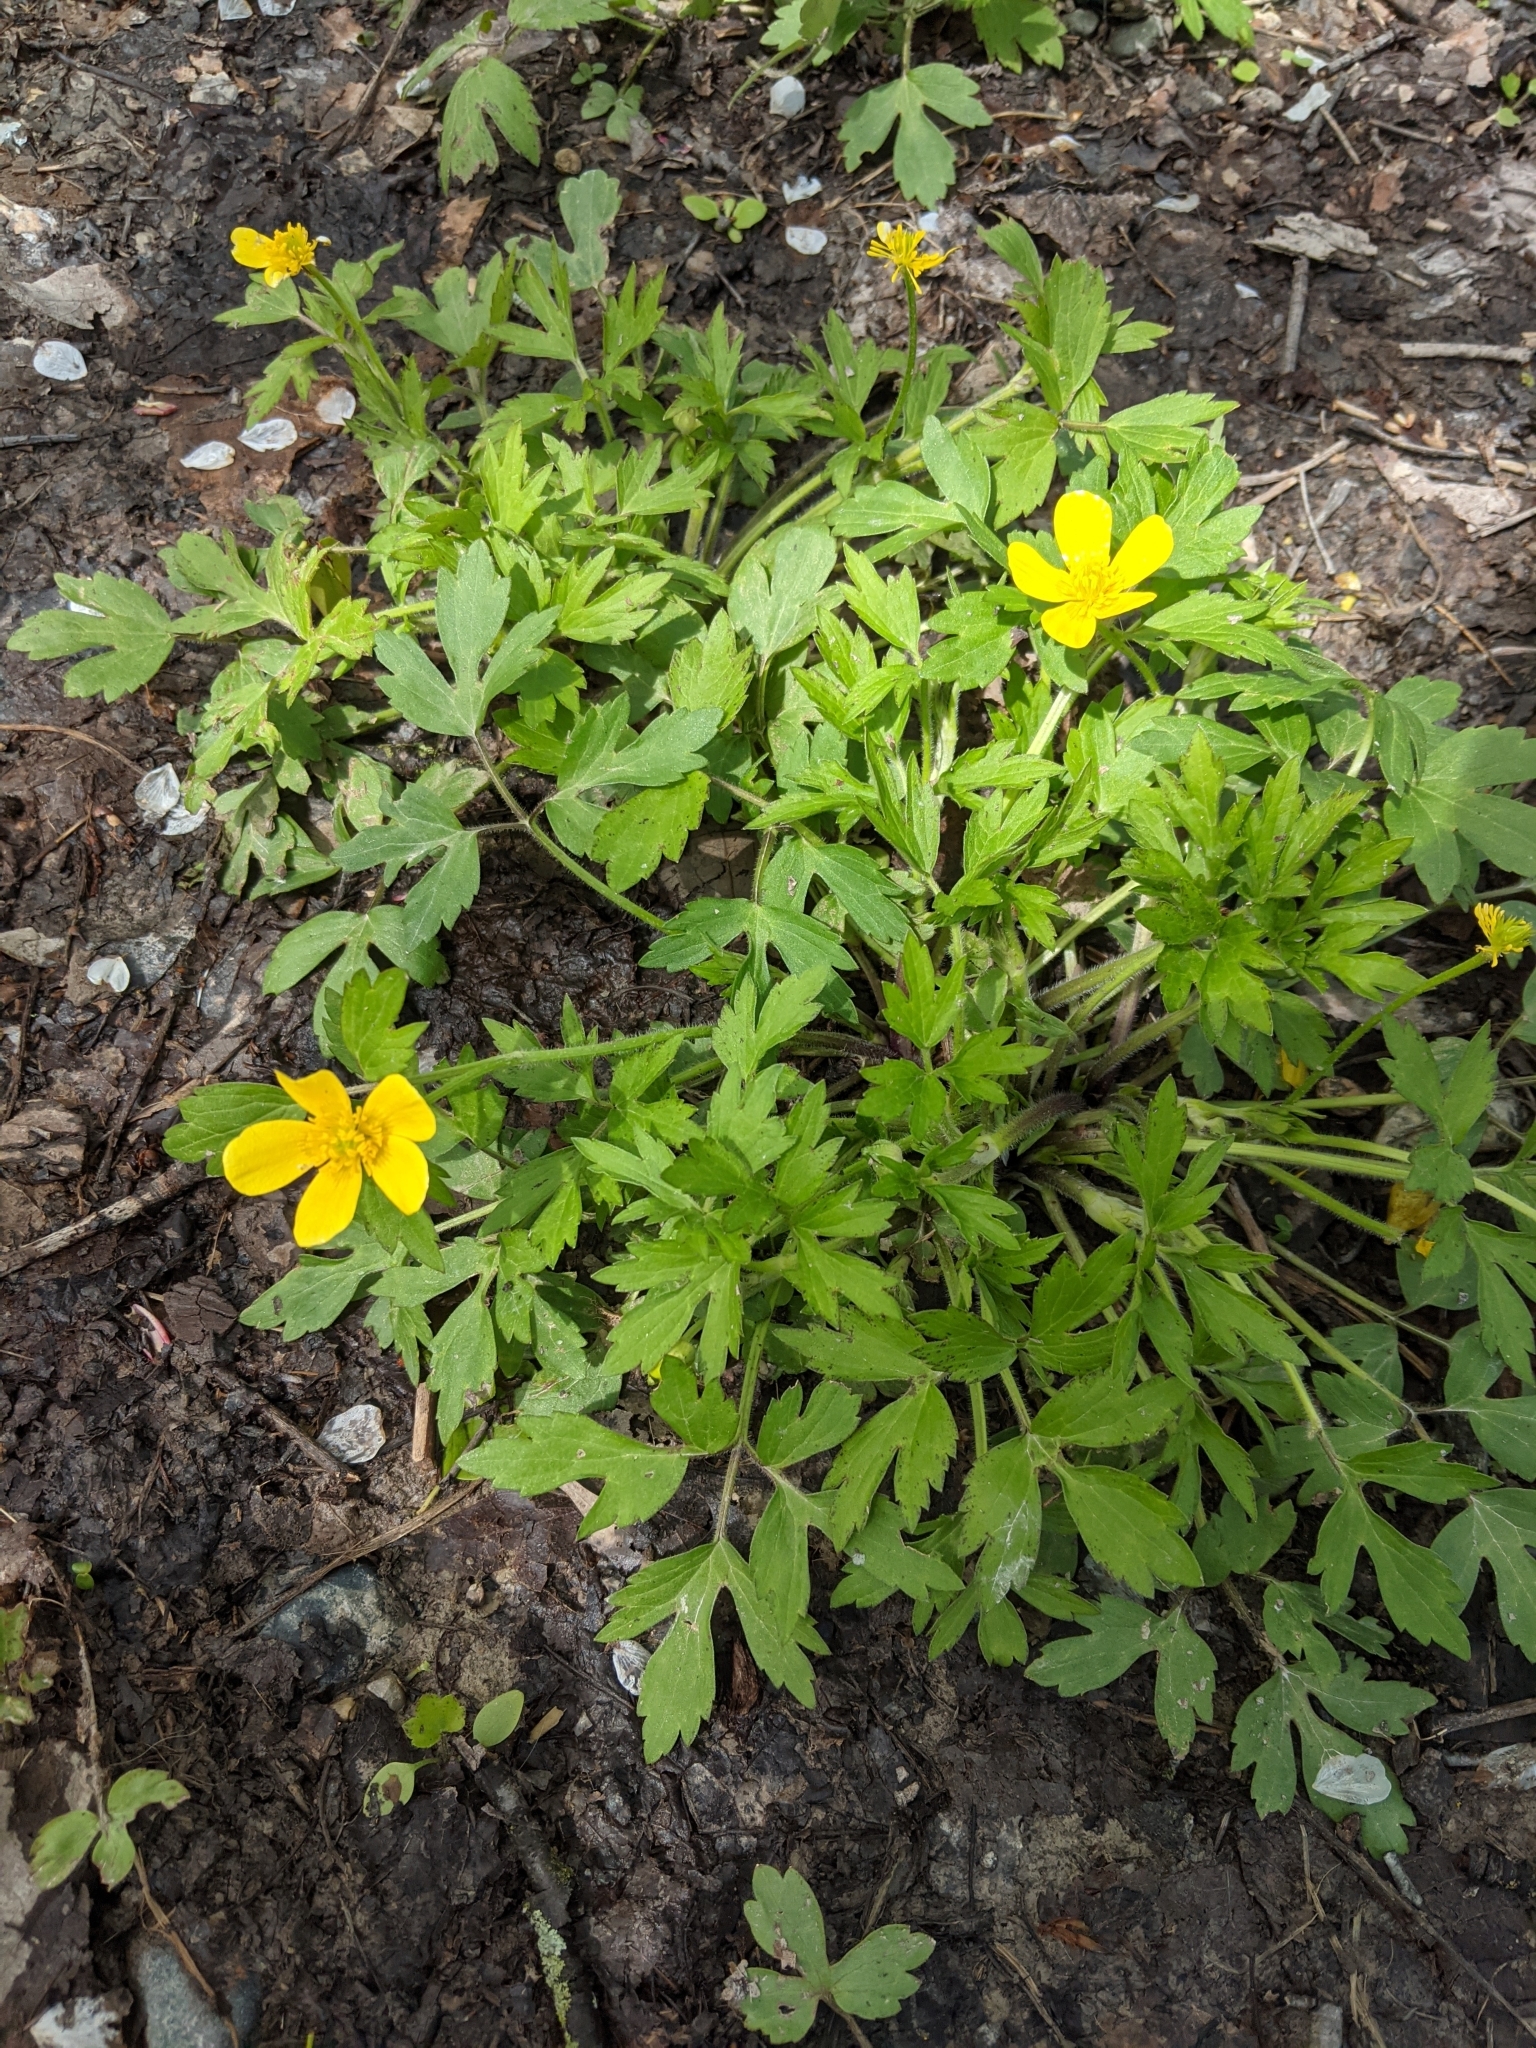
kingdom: Plantae
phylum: Tracheophyta
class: Magnoliopsida
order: Ranunculales
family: Ranunculaceae
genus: Ranunculus
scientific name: Ranunculus hispidus
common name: Bristly buttercup
